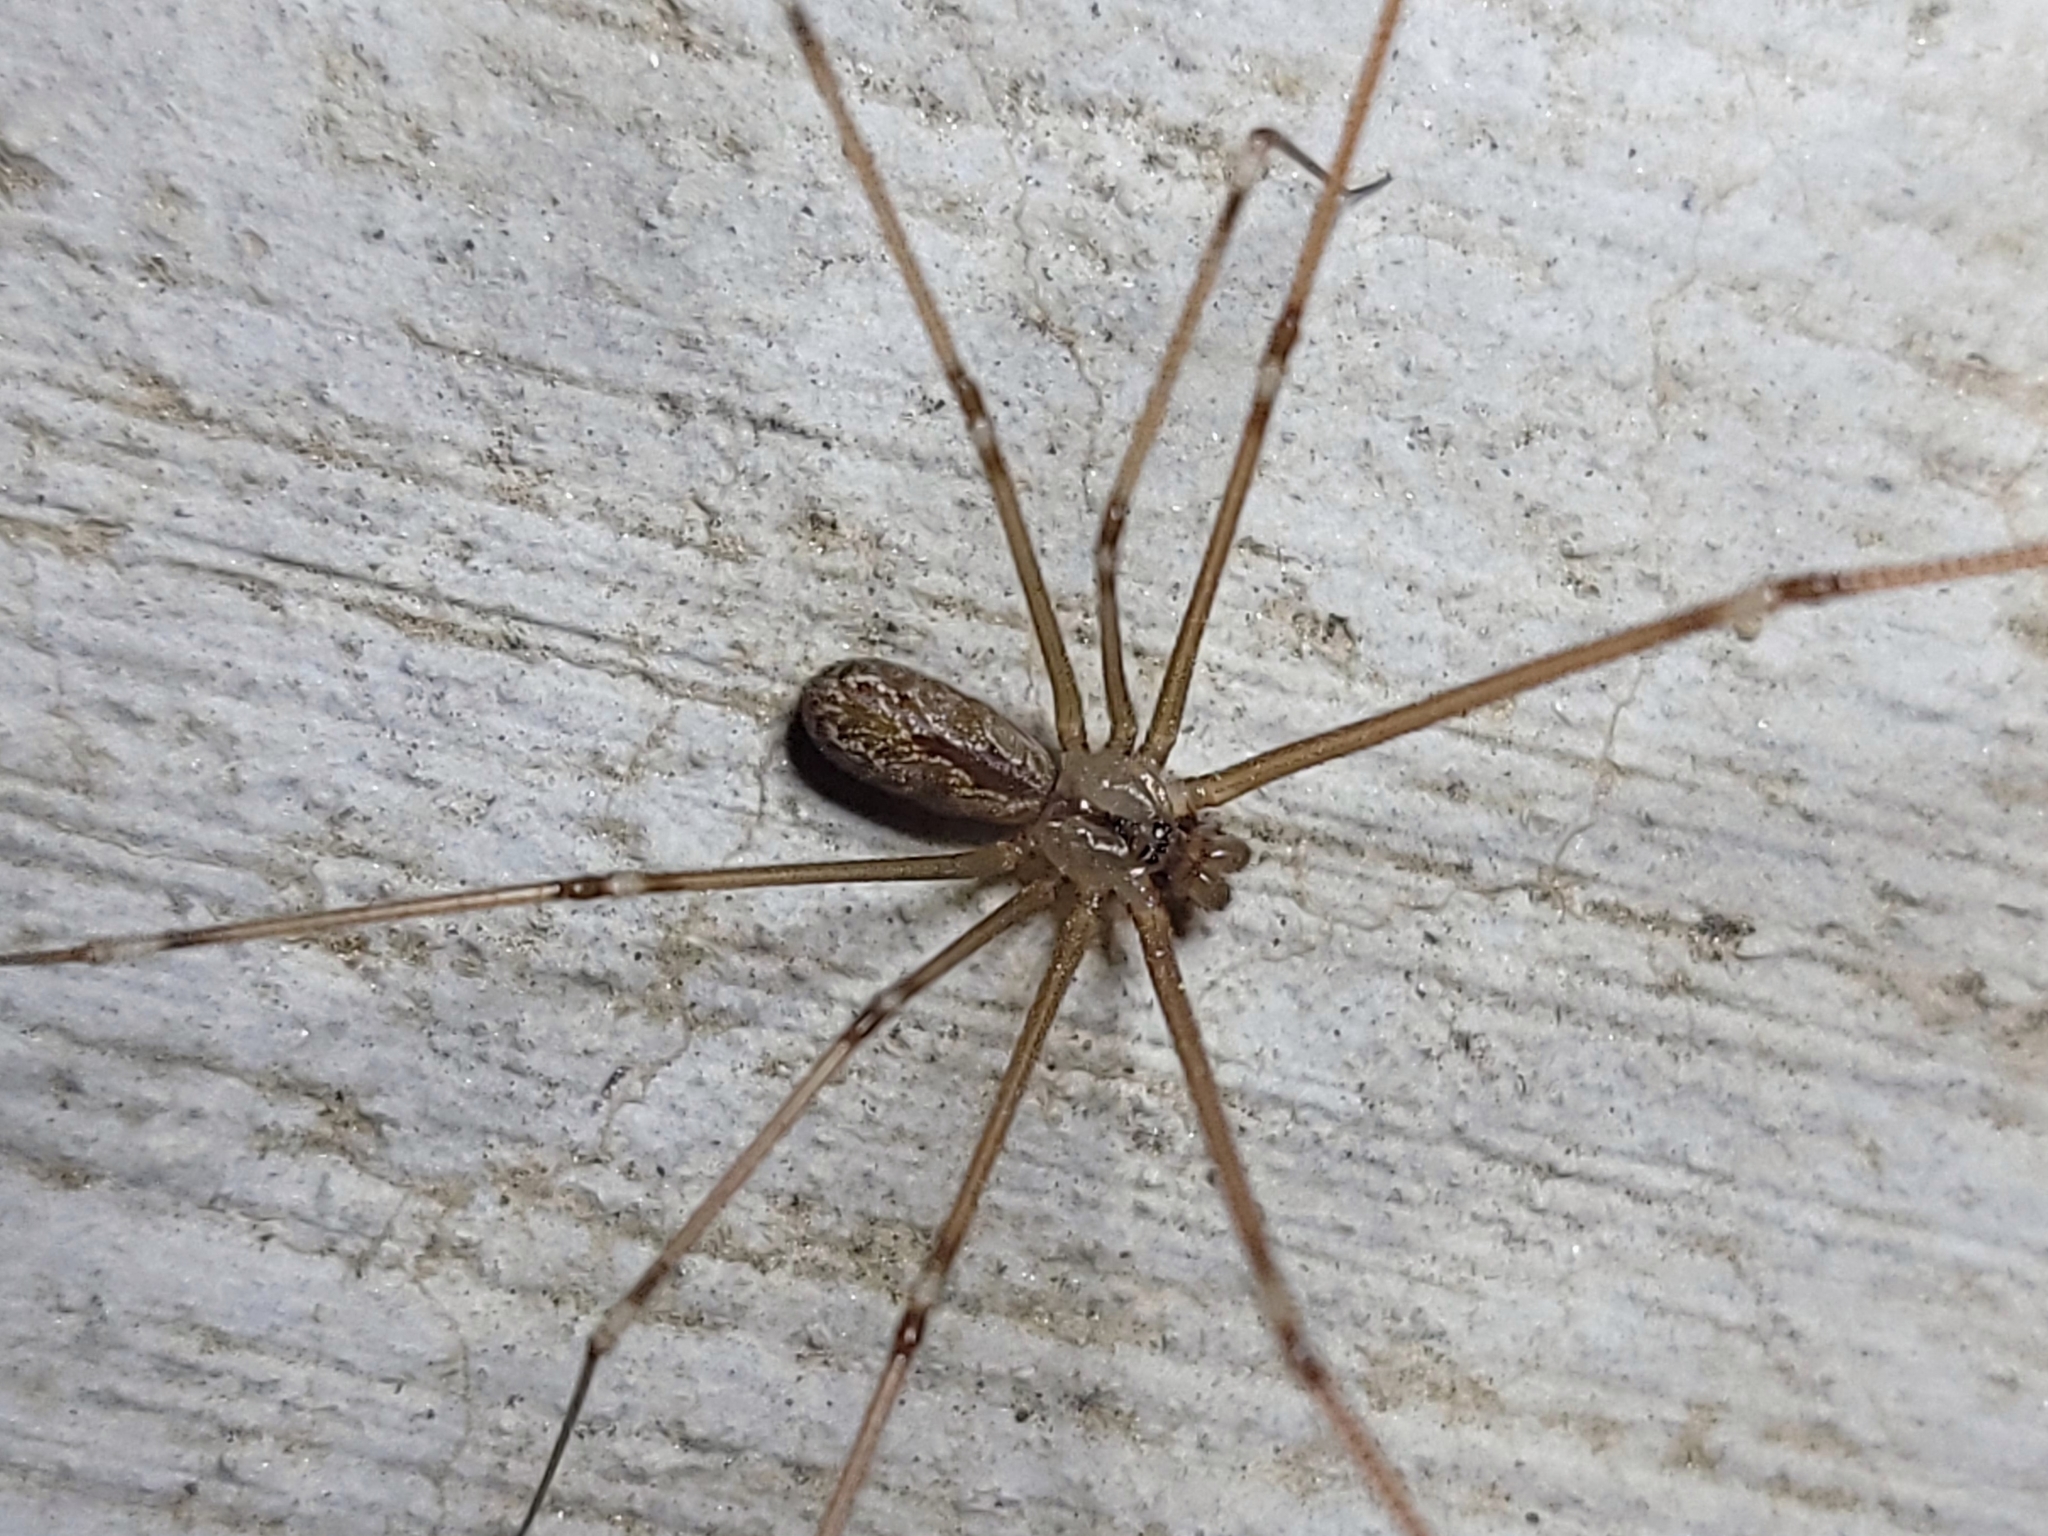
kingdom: Animalia
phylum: Arthropoda
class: Arachnida
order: Araneae
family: Pholcidae
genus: Holocnemus
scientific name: Holocnemus pluchei
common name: Marbled cellar spider
